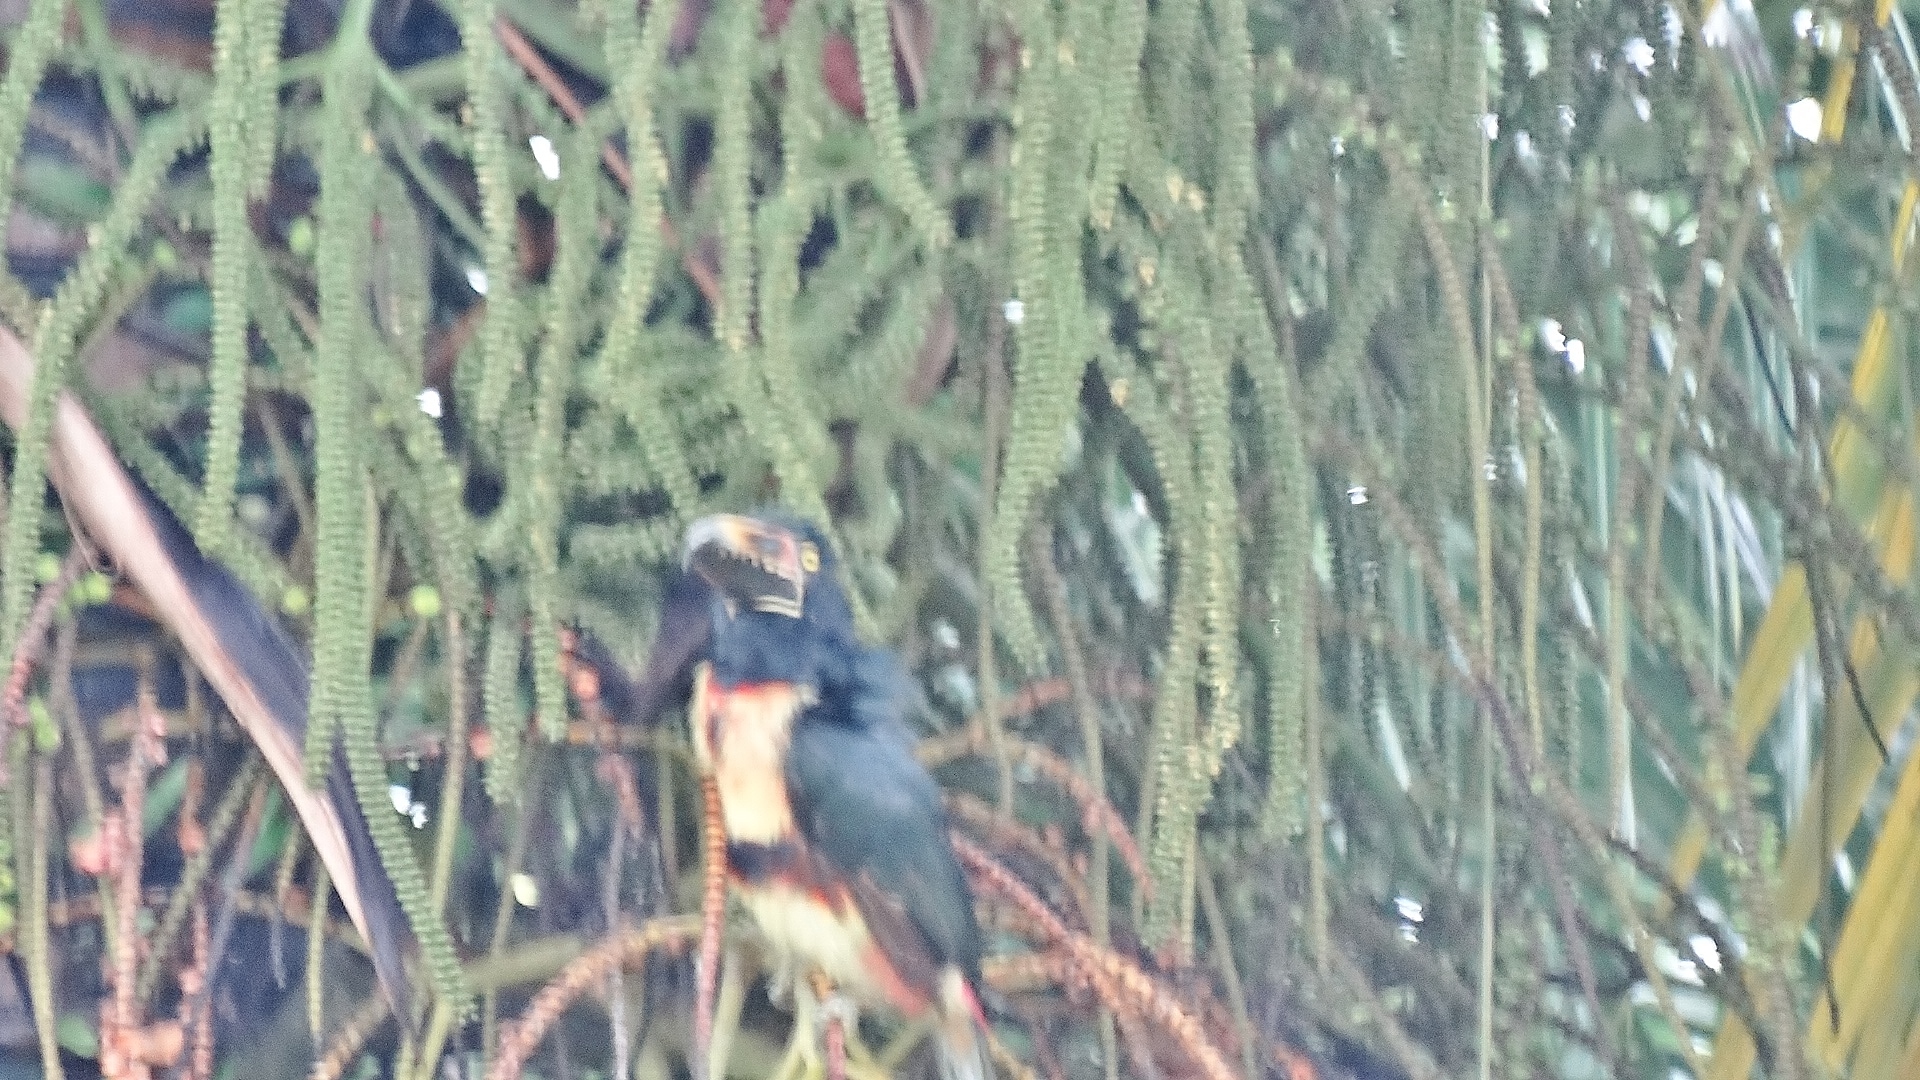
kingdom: Animalia
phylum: Chordata
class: Aves
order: Piciformes
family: Ramphastidae
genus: Pteroglossus
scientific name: Pteroglossus torquatus
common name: Collared aracari
